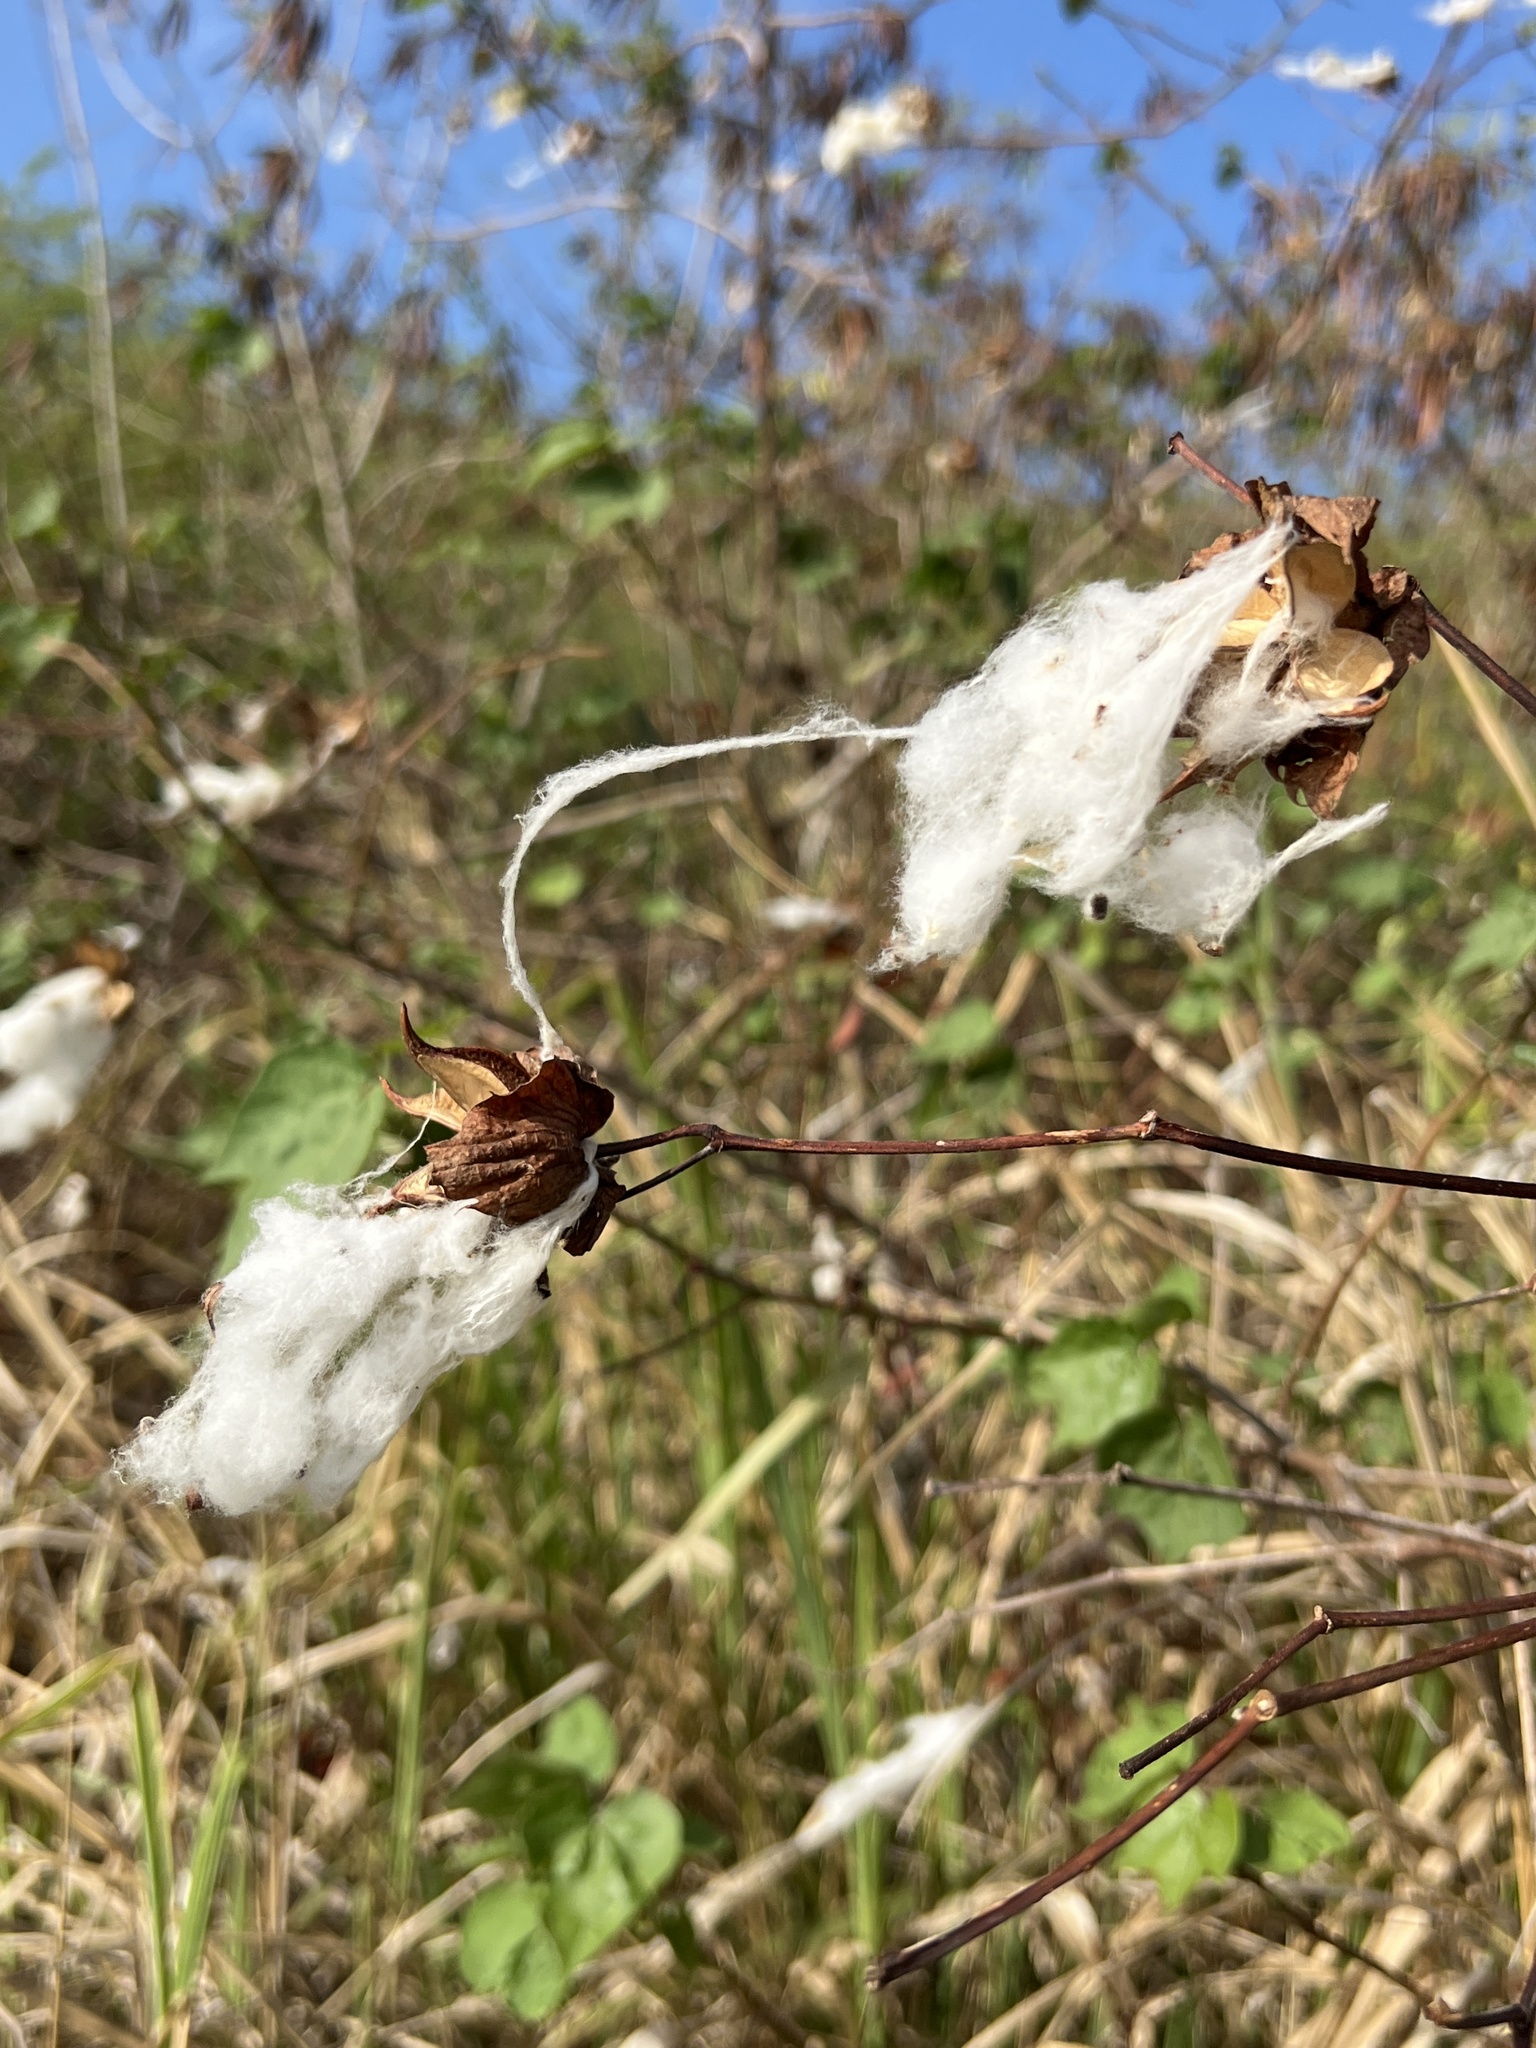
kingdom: Plantae
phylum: Tracheophyta
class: Magnoliopsida
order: Malvales
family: Malvaceae
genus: Gossypium
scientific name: Gossypium hirsutum
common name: Cotton
